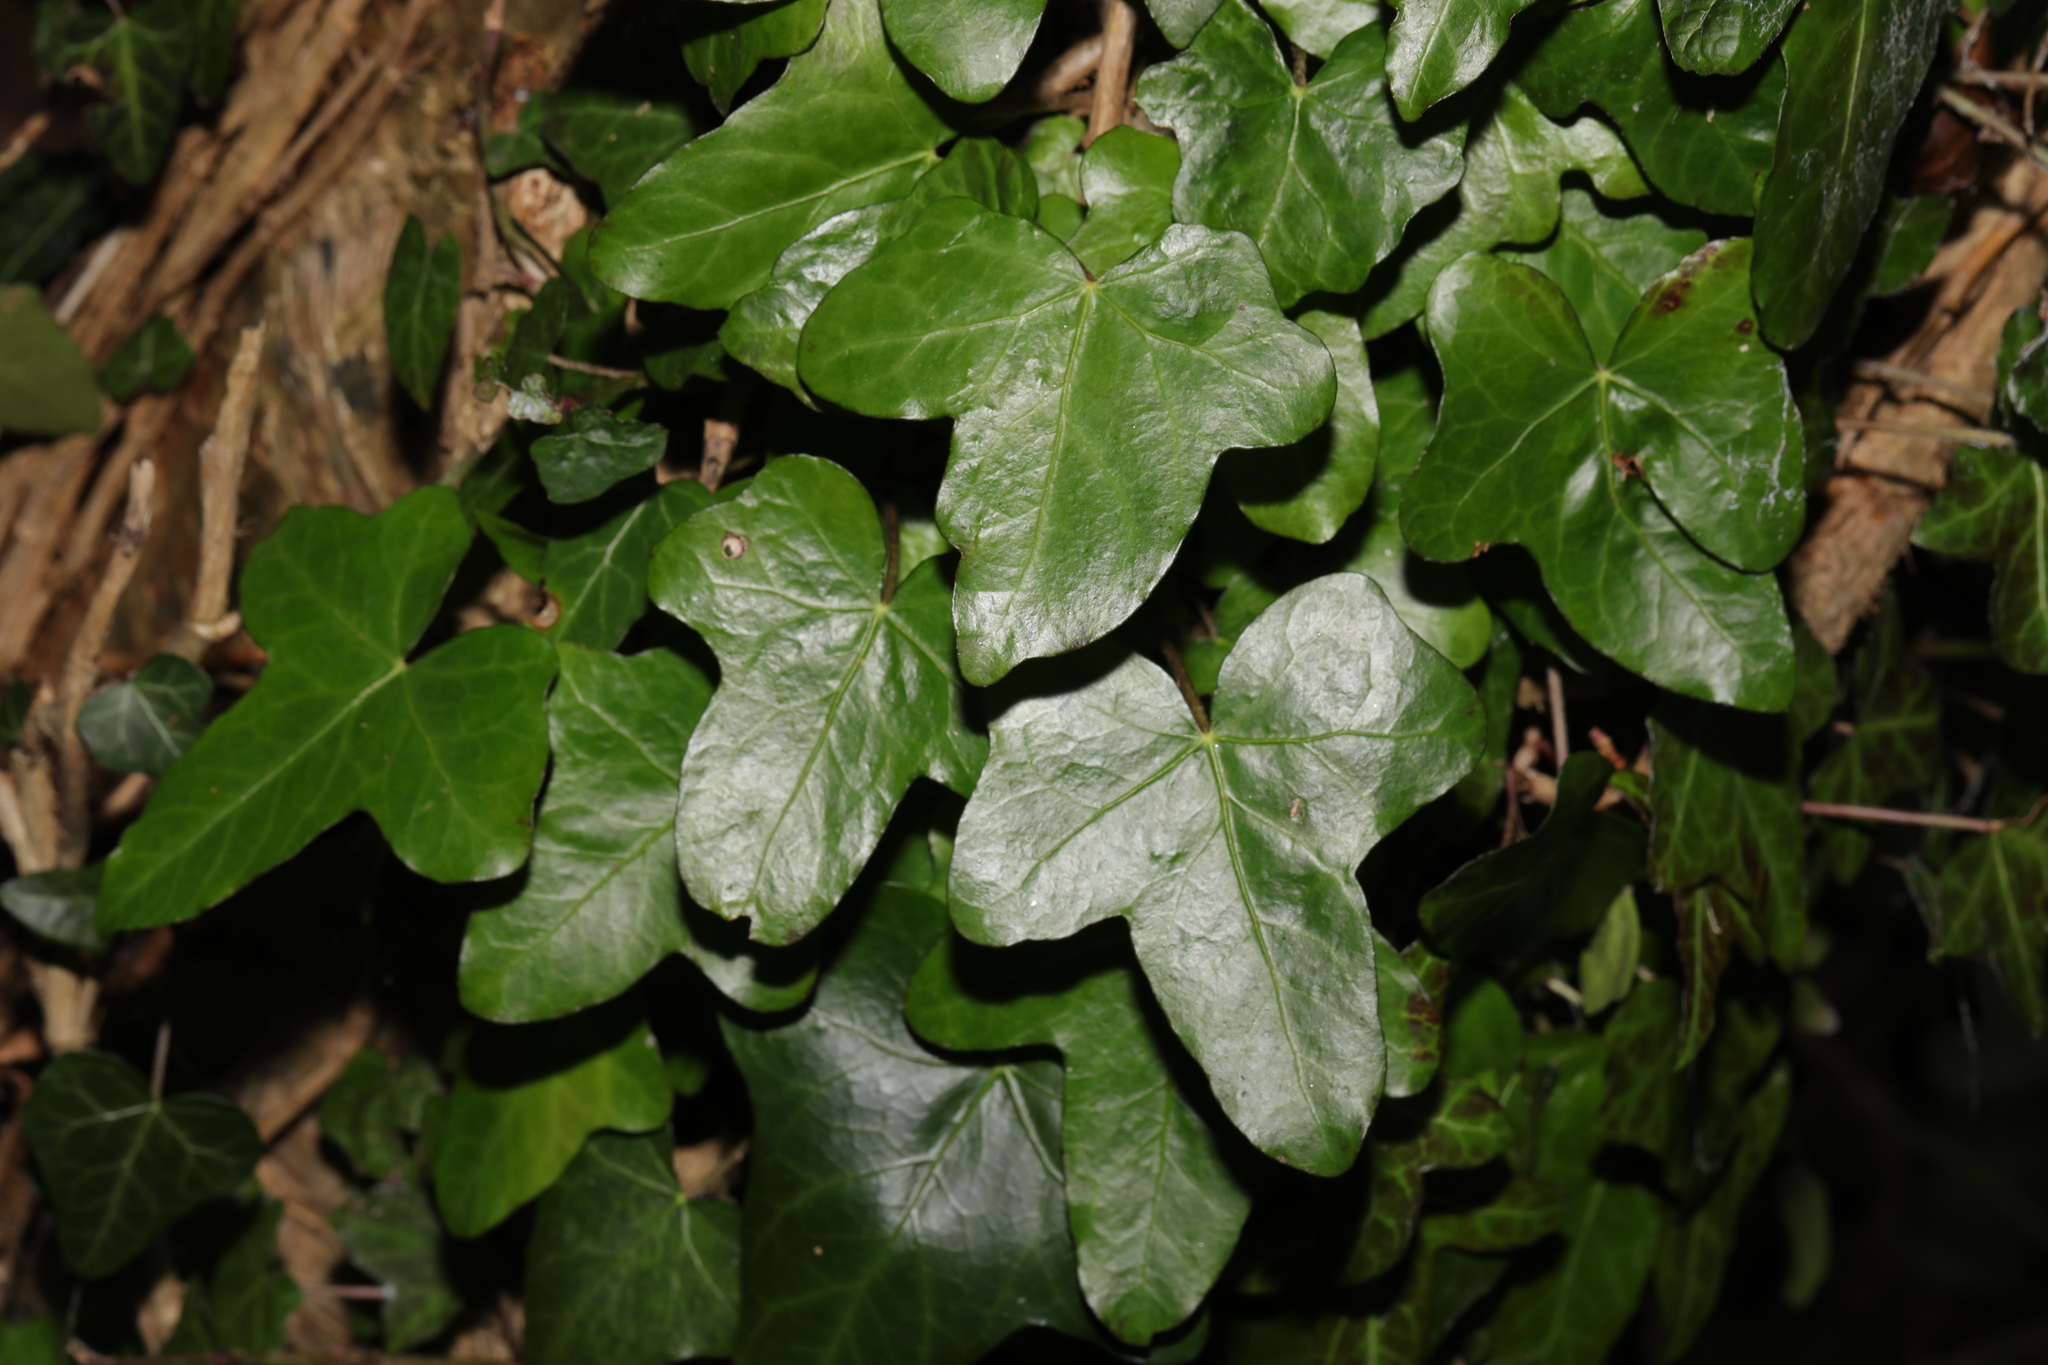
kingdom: Plantae
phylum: Tracheophyta
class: Magnoliopsida
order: Apiales
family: Araliaceae
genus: Hedera
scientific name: Hedera helix
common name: Ivy
